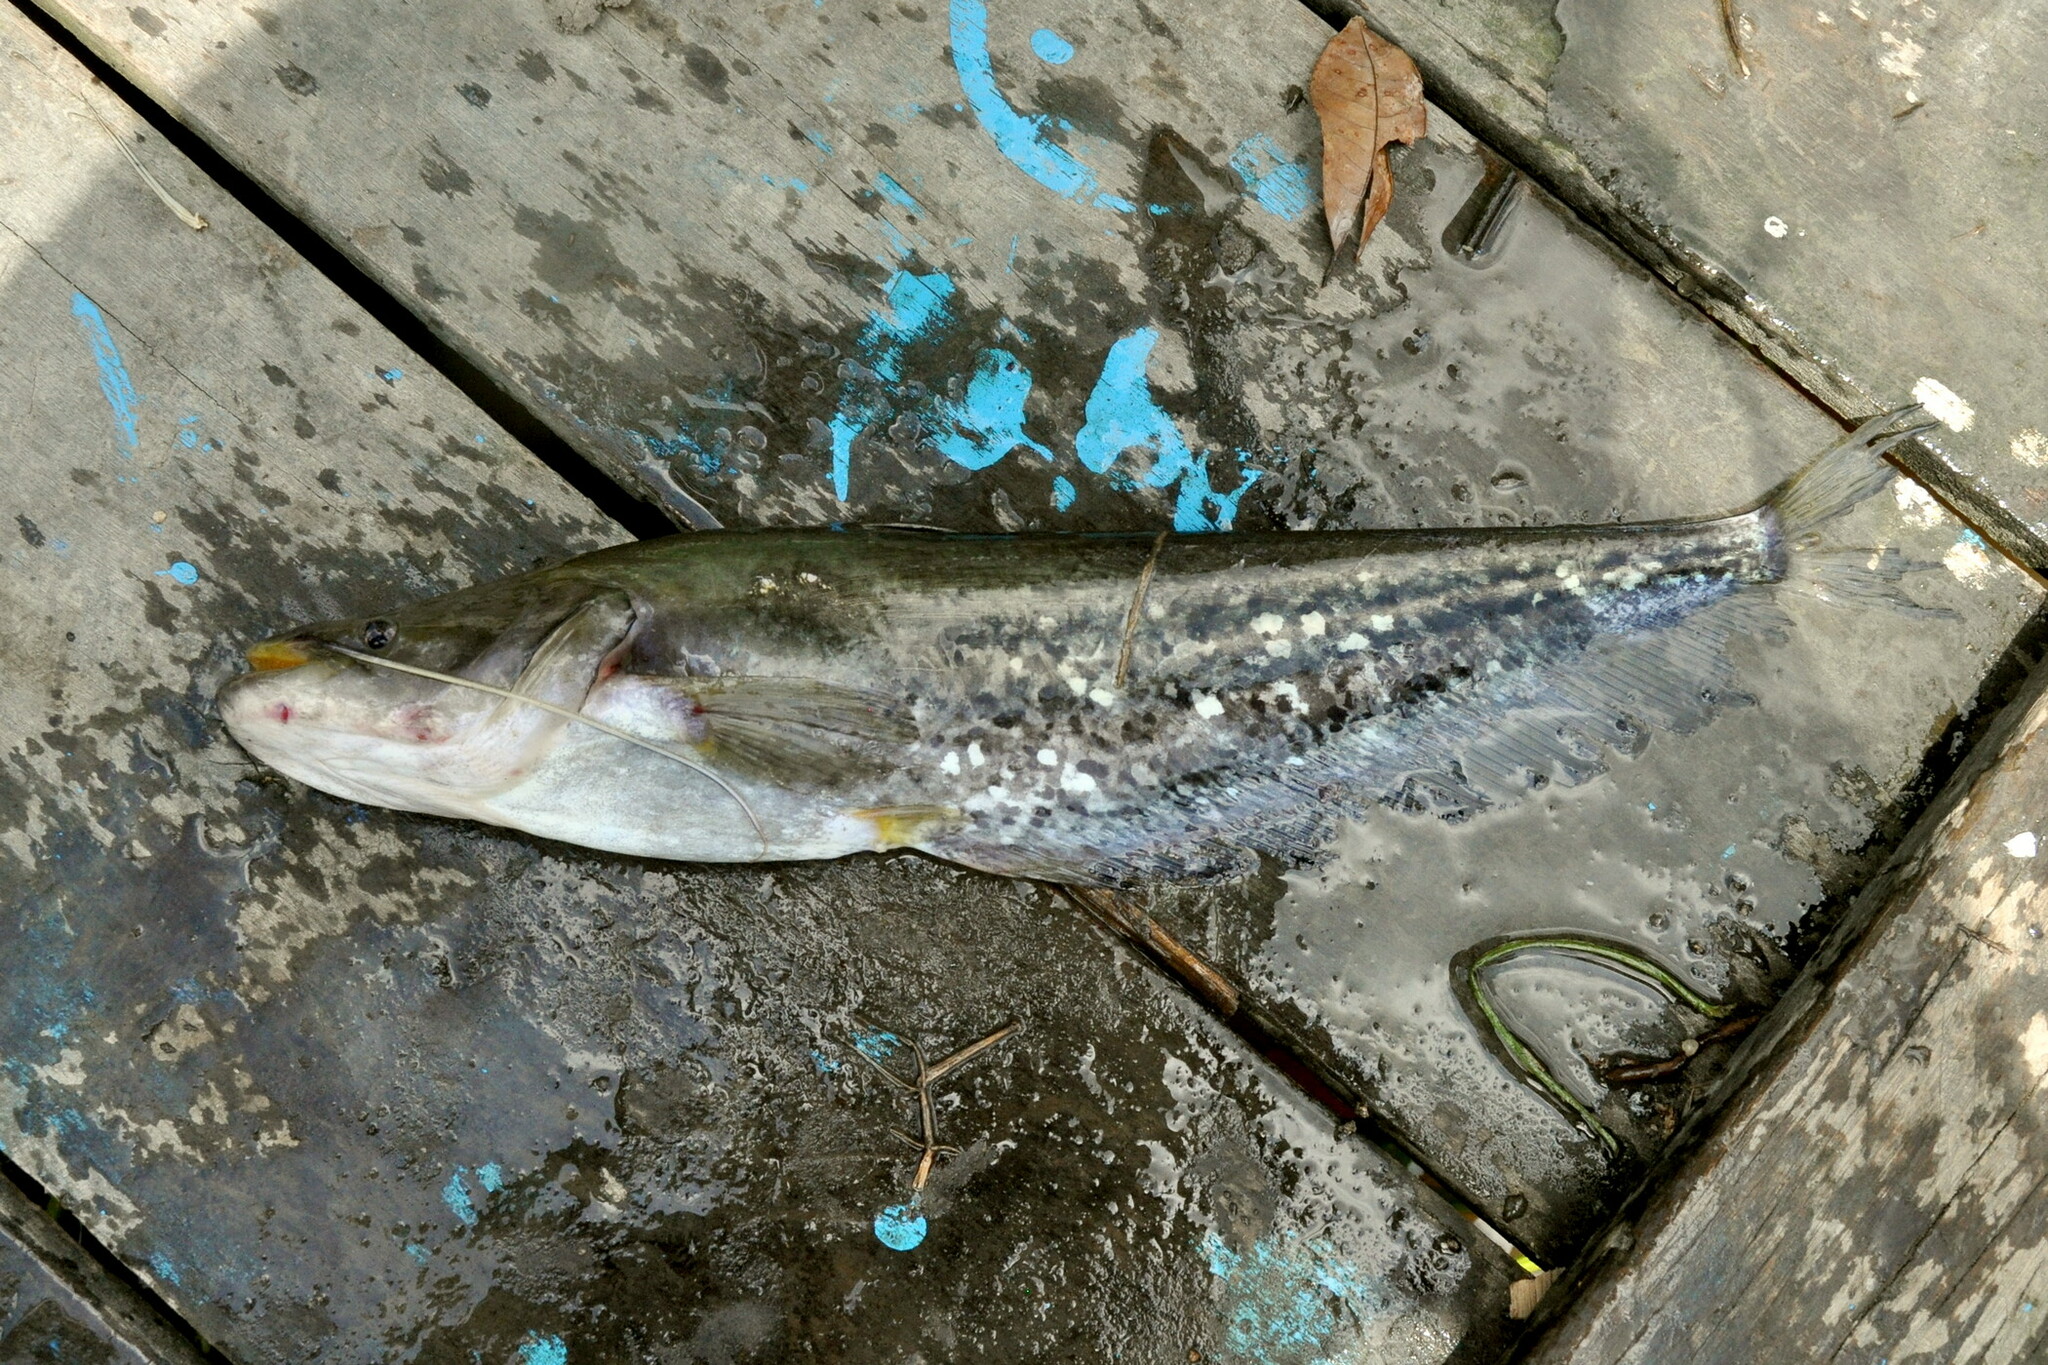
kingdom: Animalia
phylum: Chordata
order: Siluriformes
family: Siluridae
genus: Wallago
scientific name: Wallago leerii
